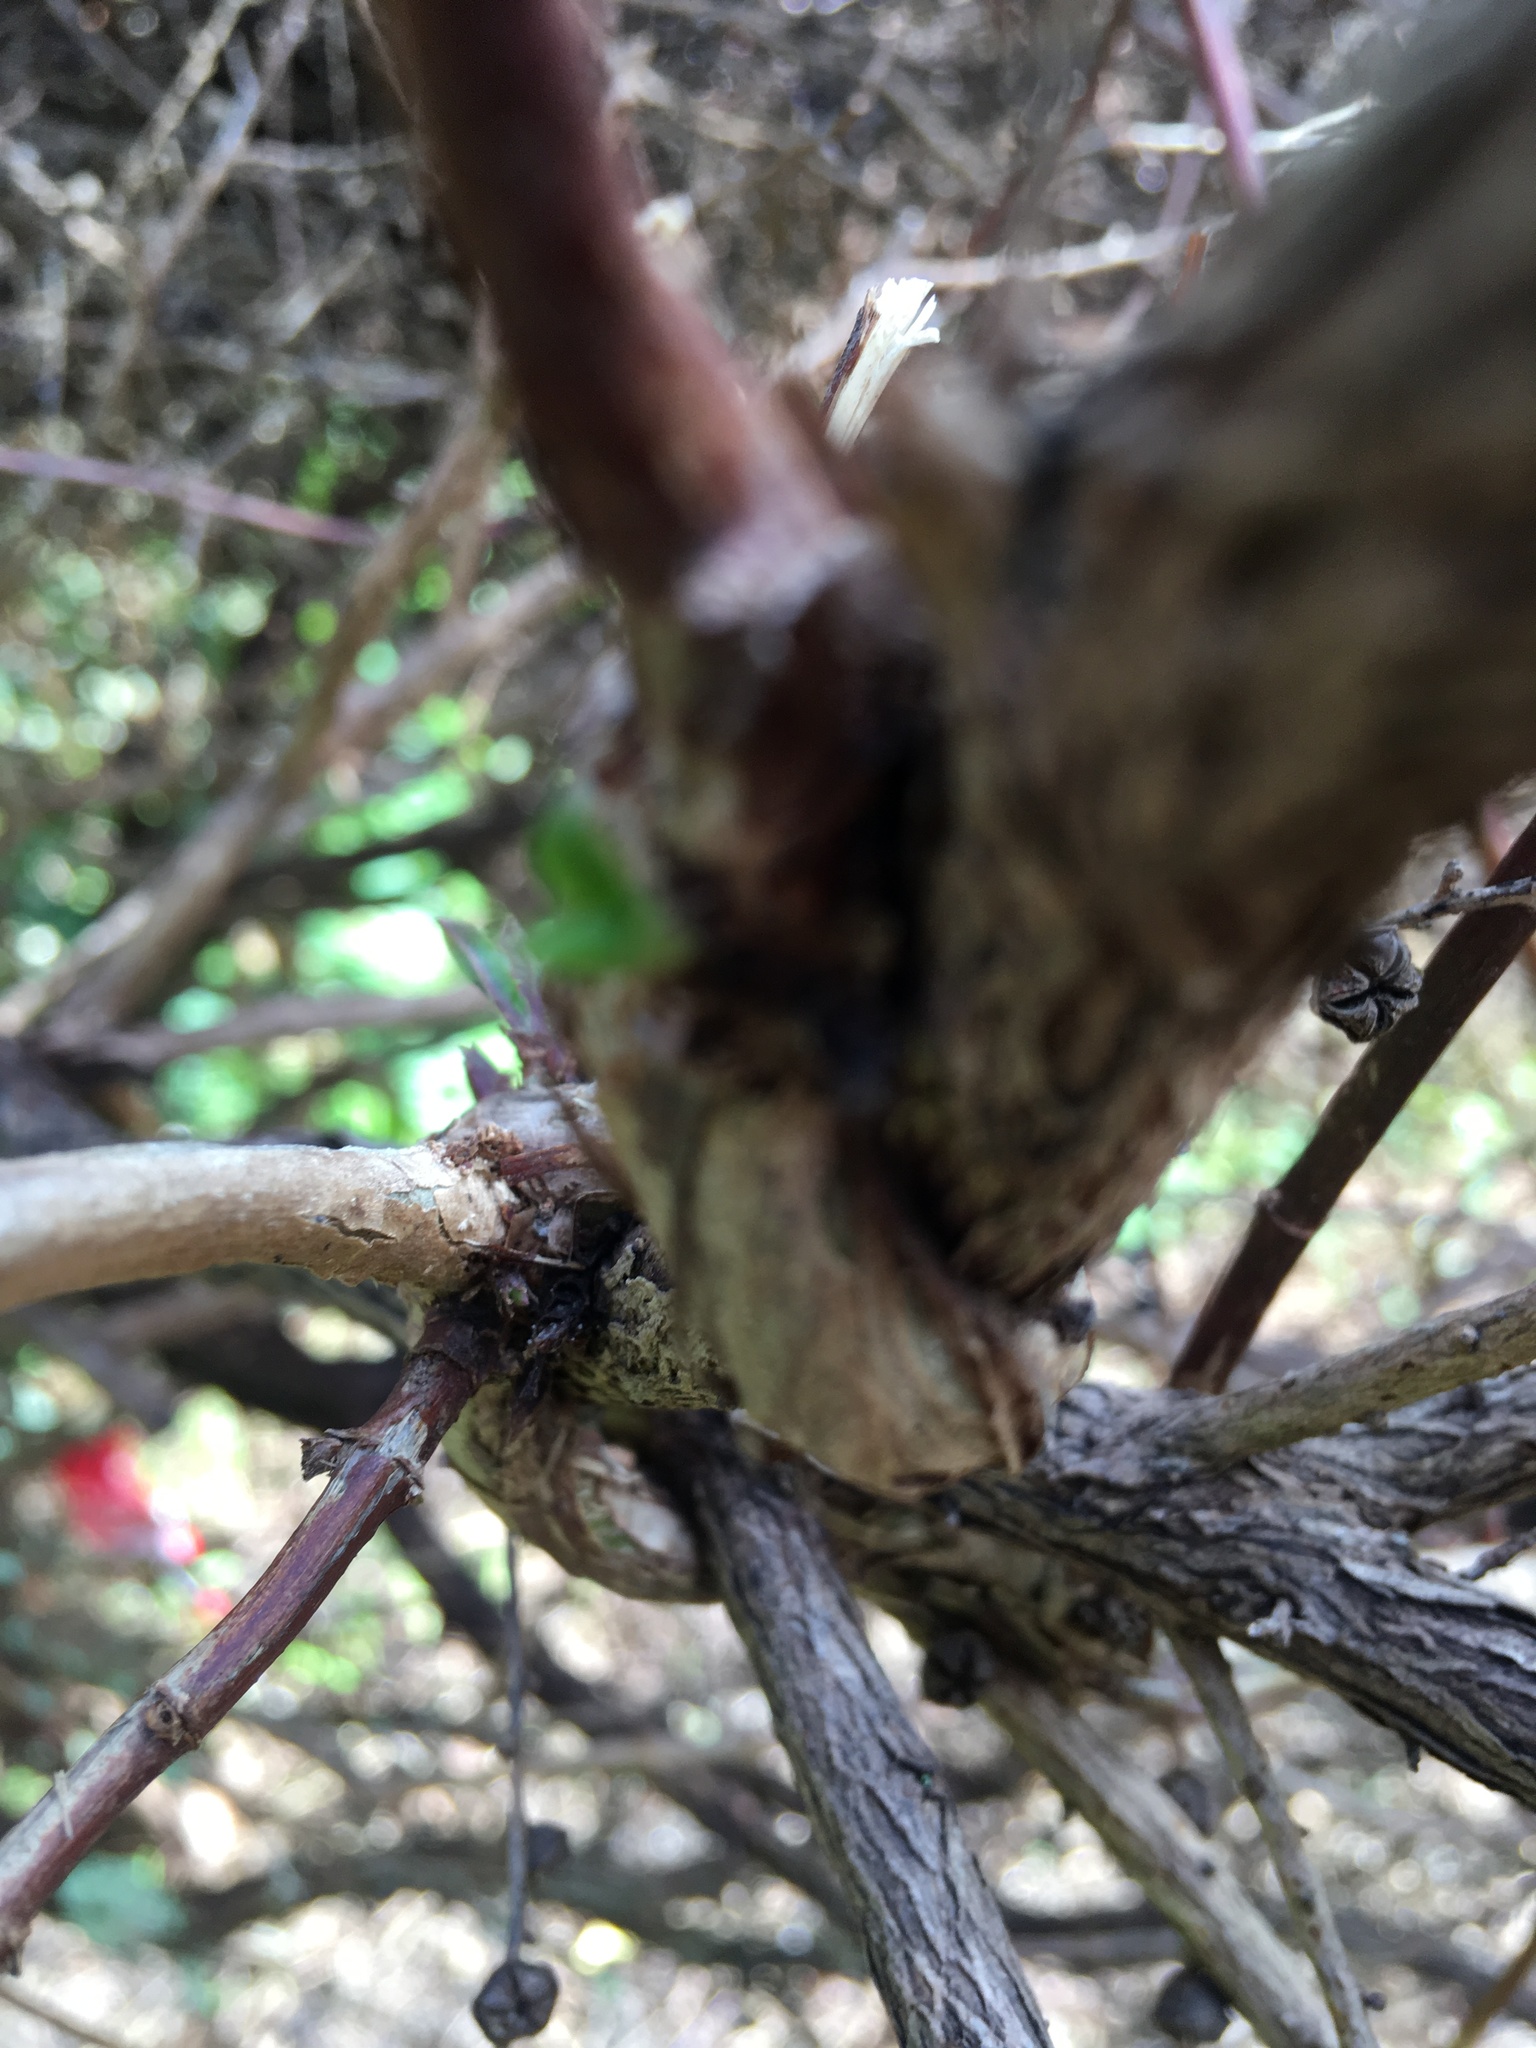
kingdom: Plantae
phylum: Tracheophyta
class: Magnoliopsida
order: Dipsacales
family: Caprifoliaceae
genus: Lonicera
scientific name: Lonicera japonica
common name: Japanese honeysuckle
